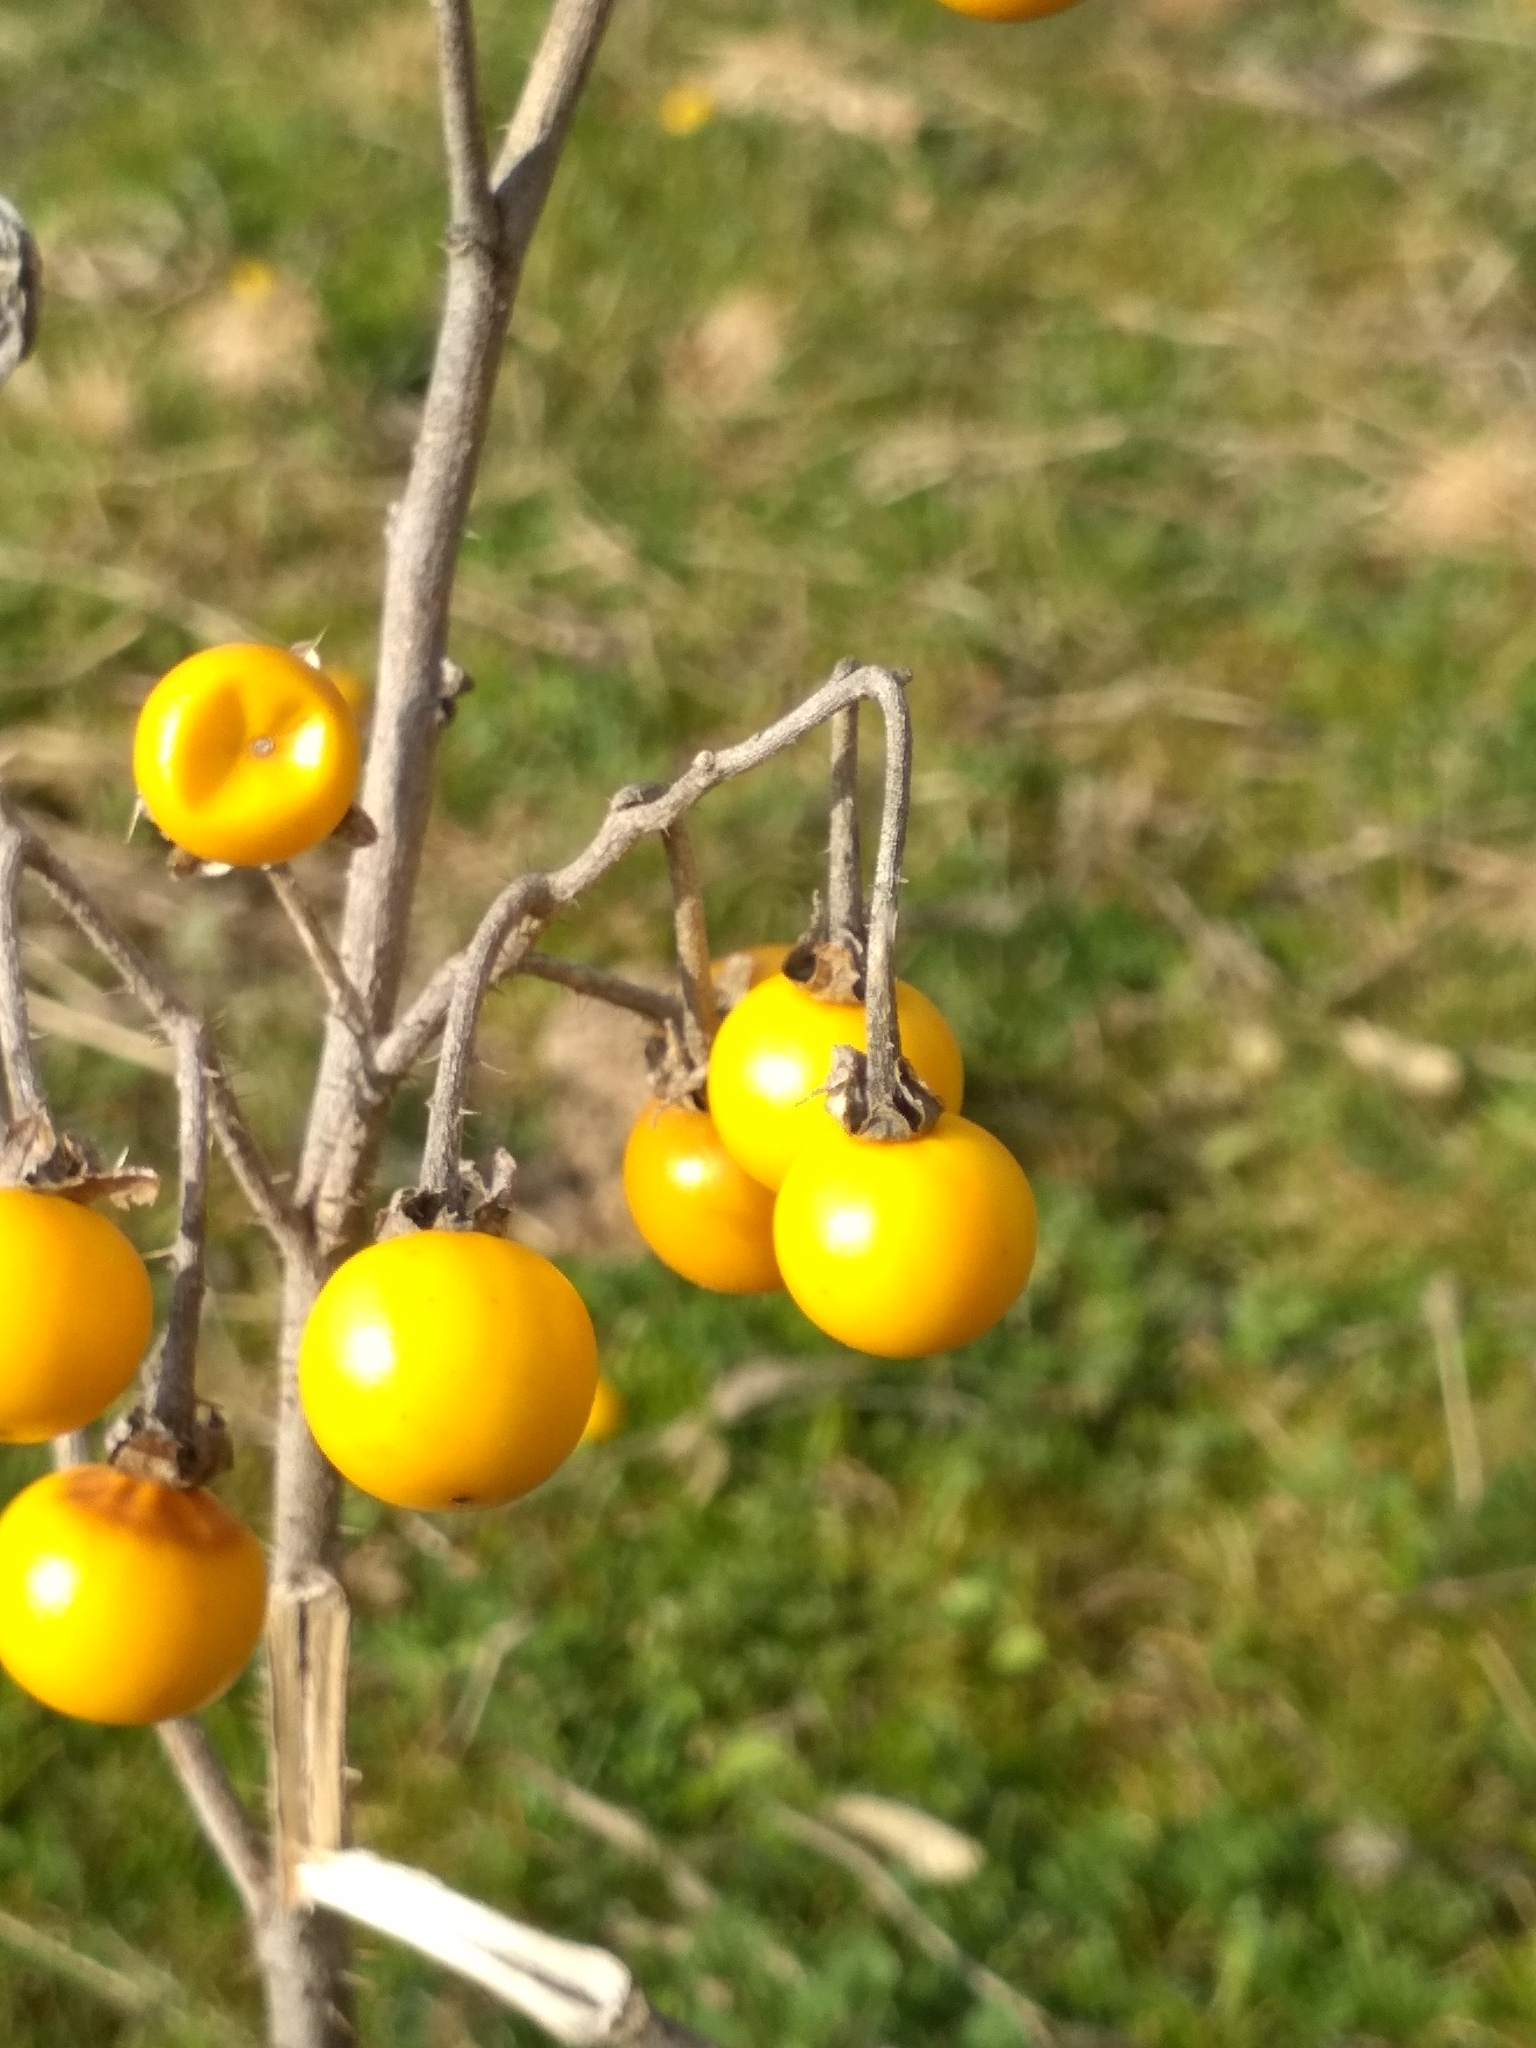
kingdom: Plantae
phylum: Tracheophyta
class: Magnoliopsida
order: Solanales
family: Solanaceae
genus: Solanum
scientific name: Solanum elaeagnifolium
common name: Silverleaf nightshade
